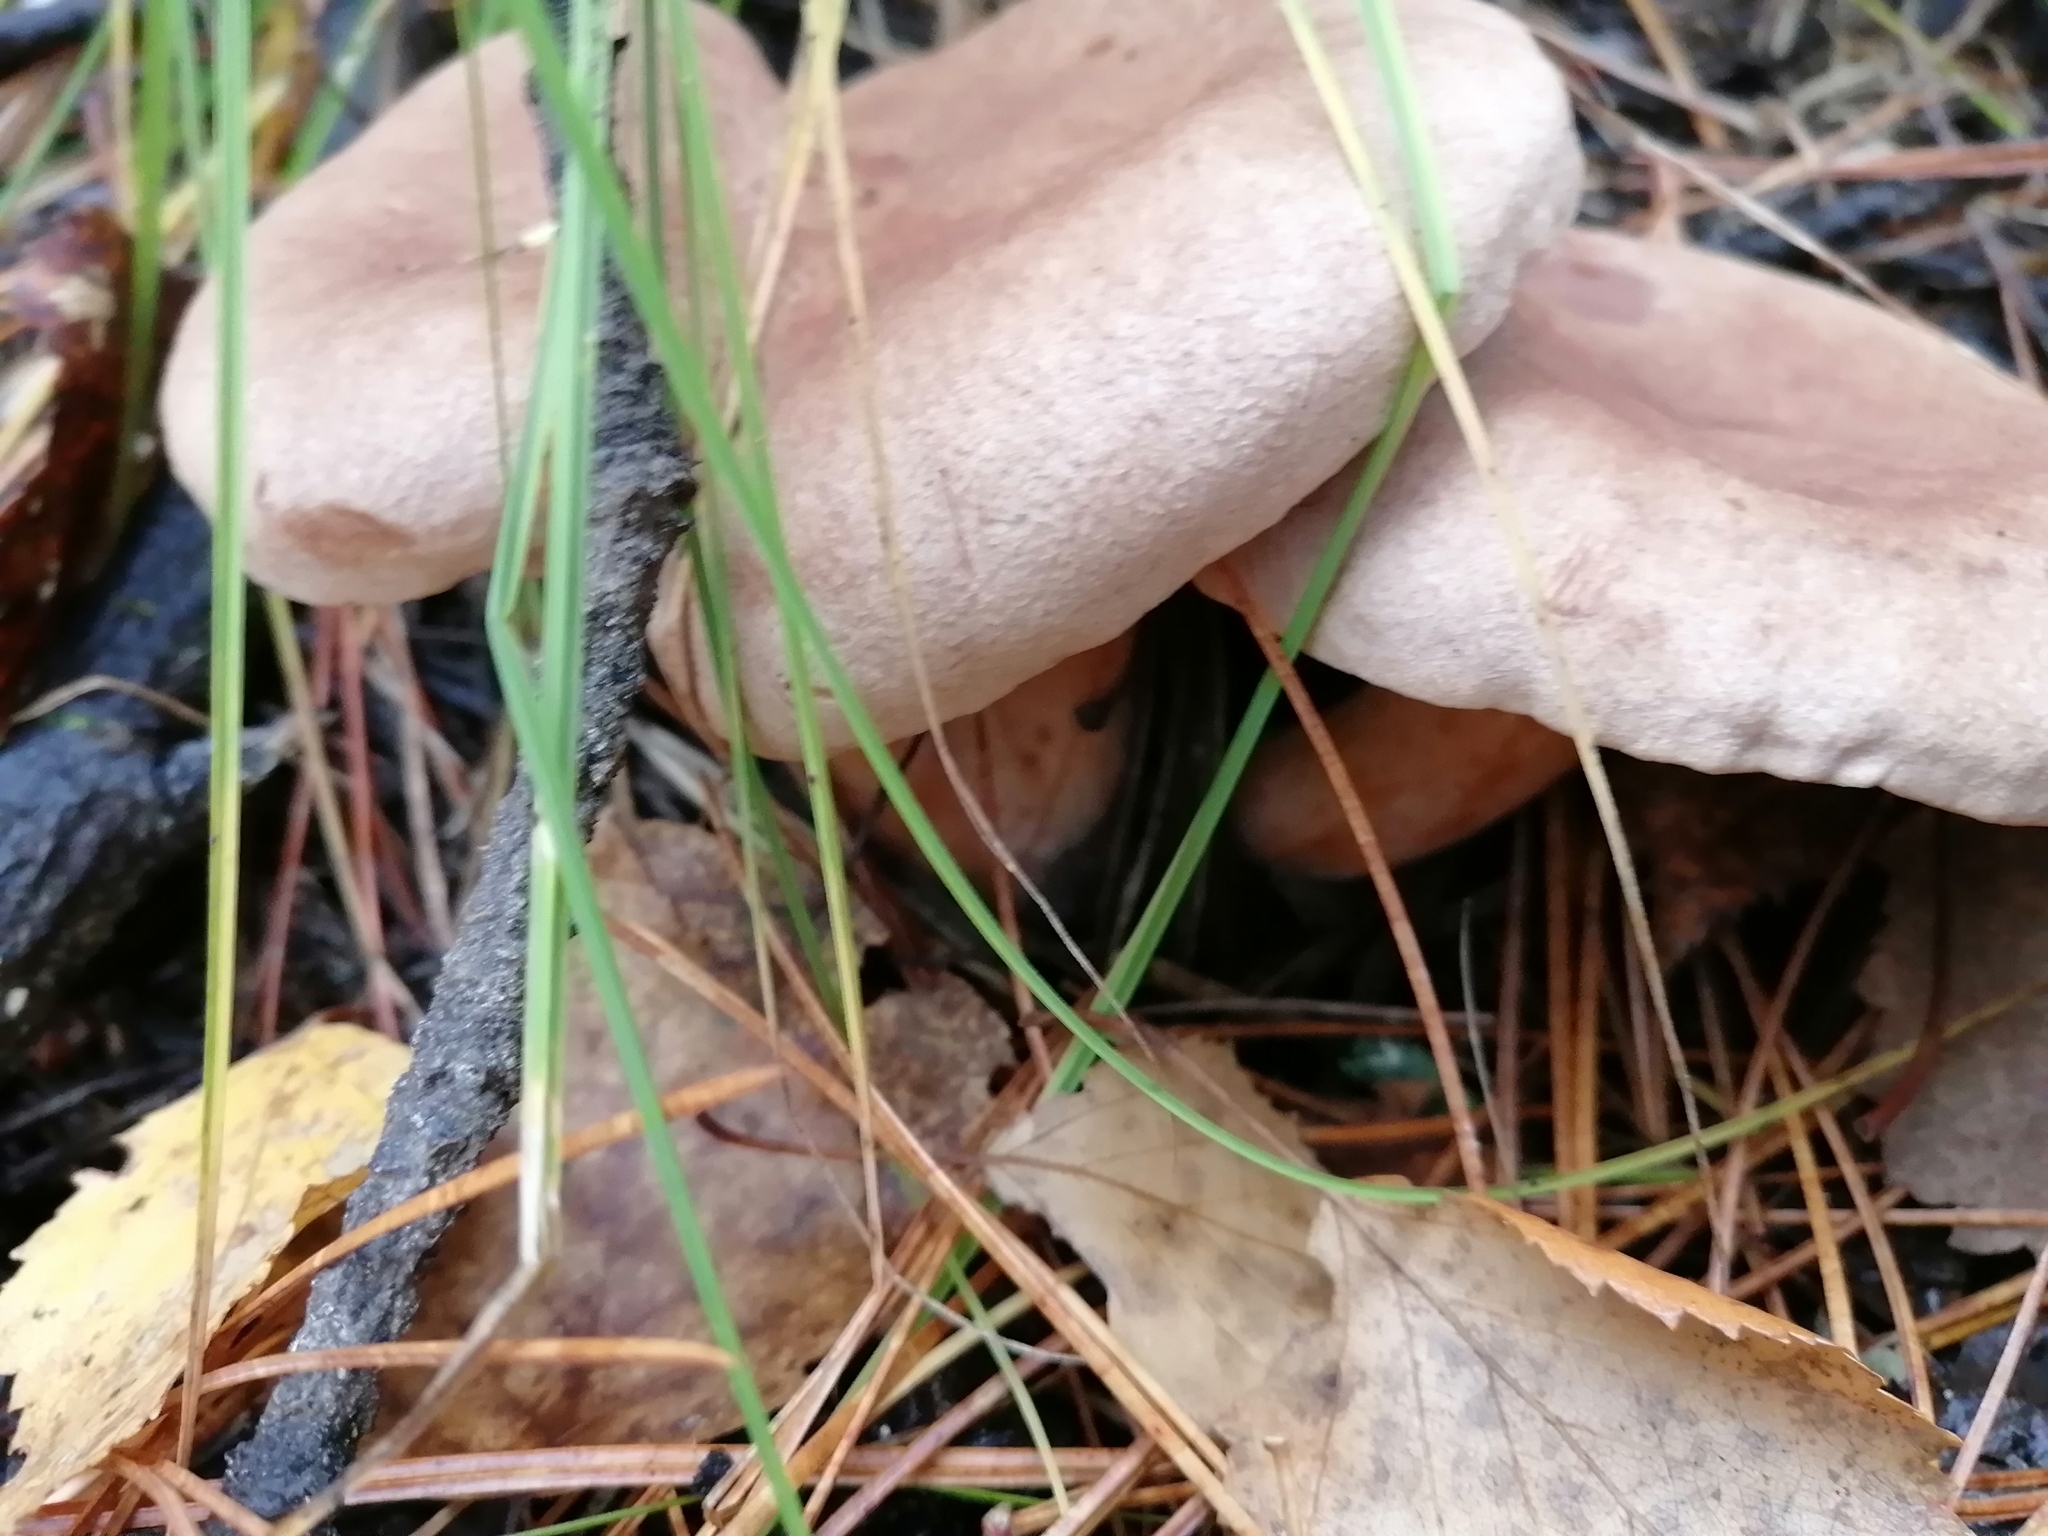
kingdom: Fungi
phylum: Basidiomycota
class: Agaricomycetes
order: Russulales
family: Russulaceae
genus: Lactarius
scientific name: Lactarius helvus
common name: Fenugreek milkcap
